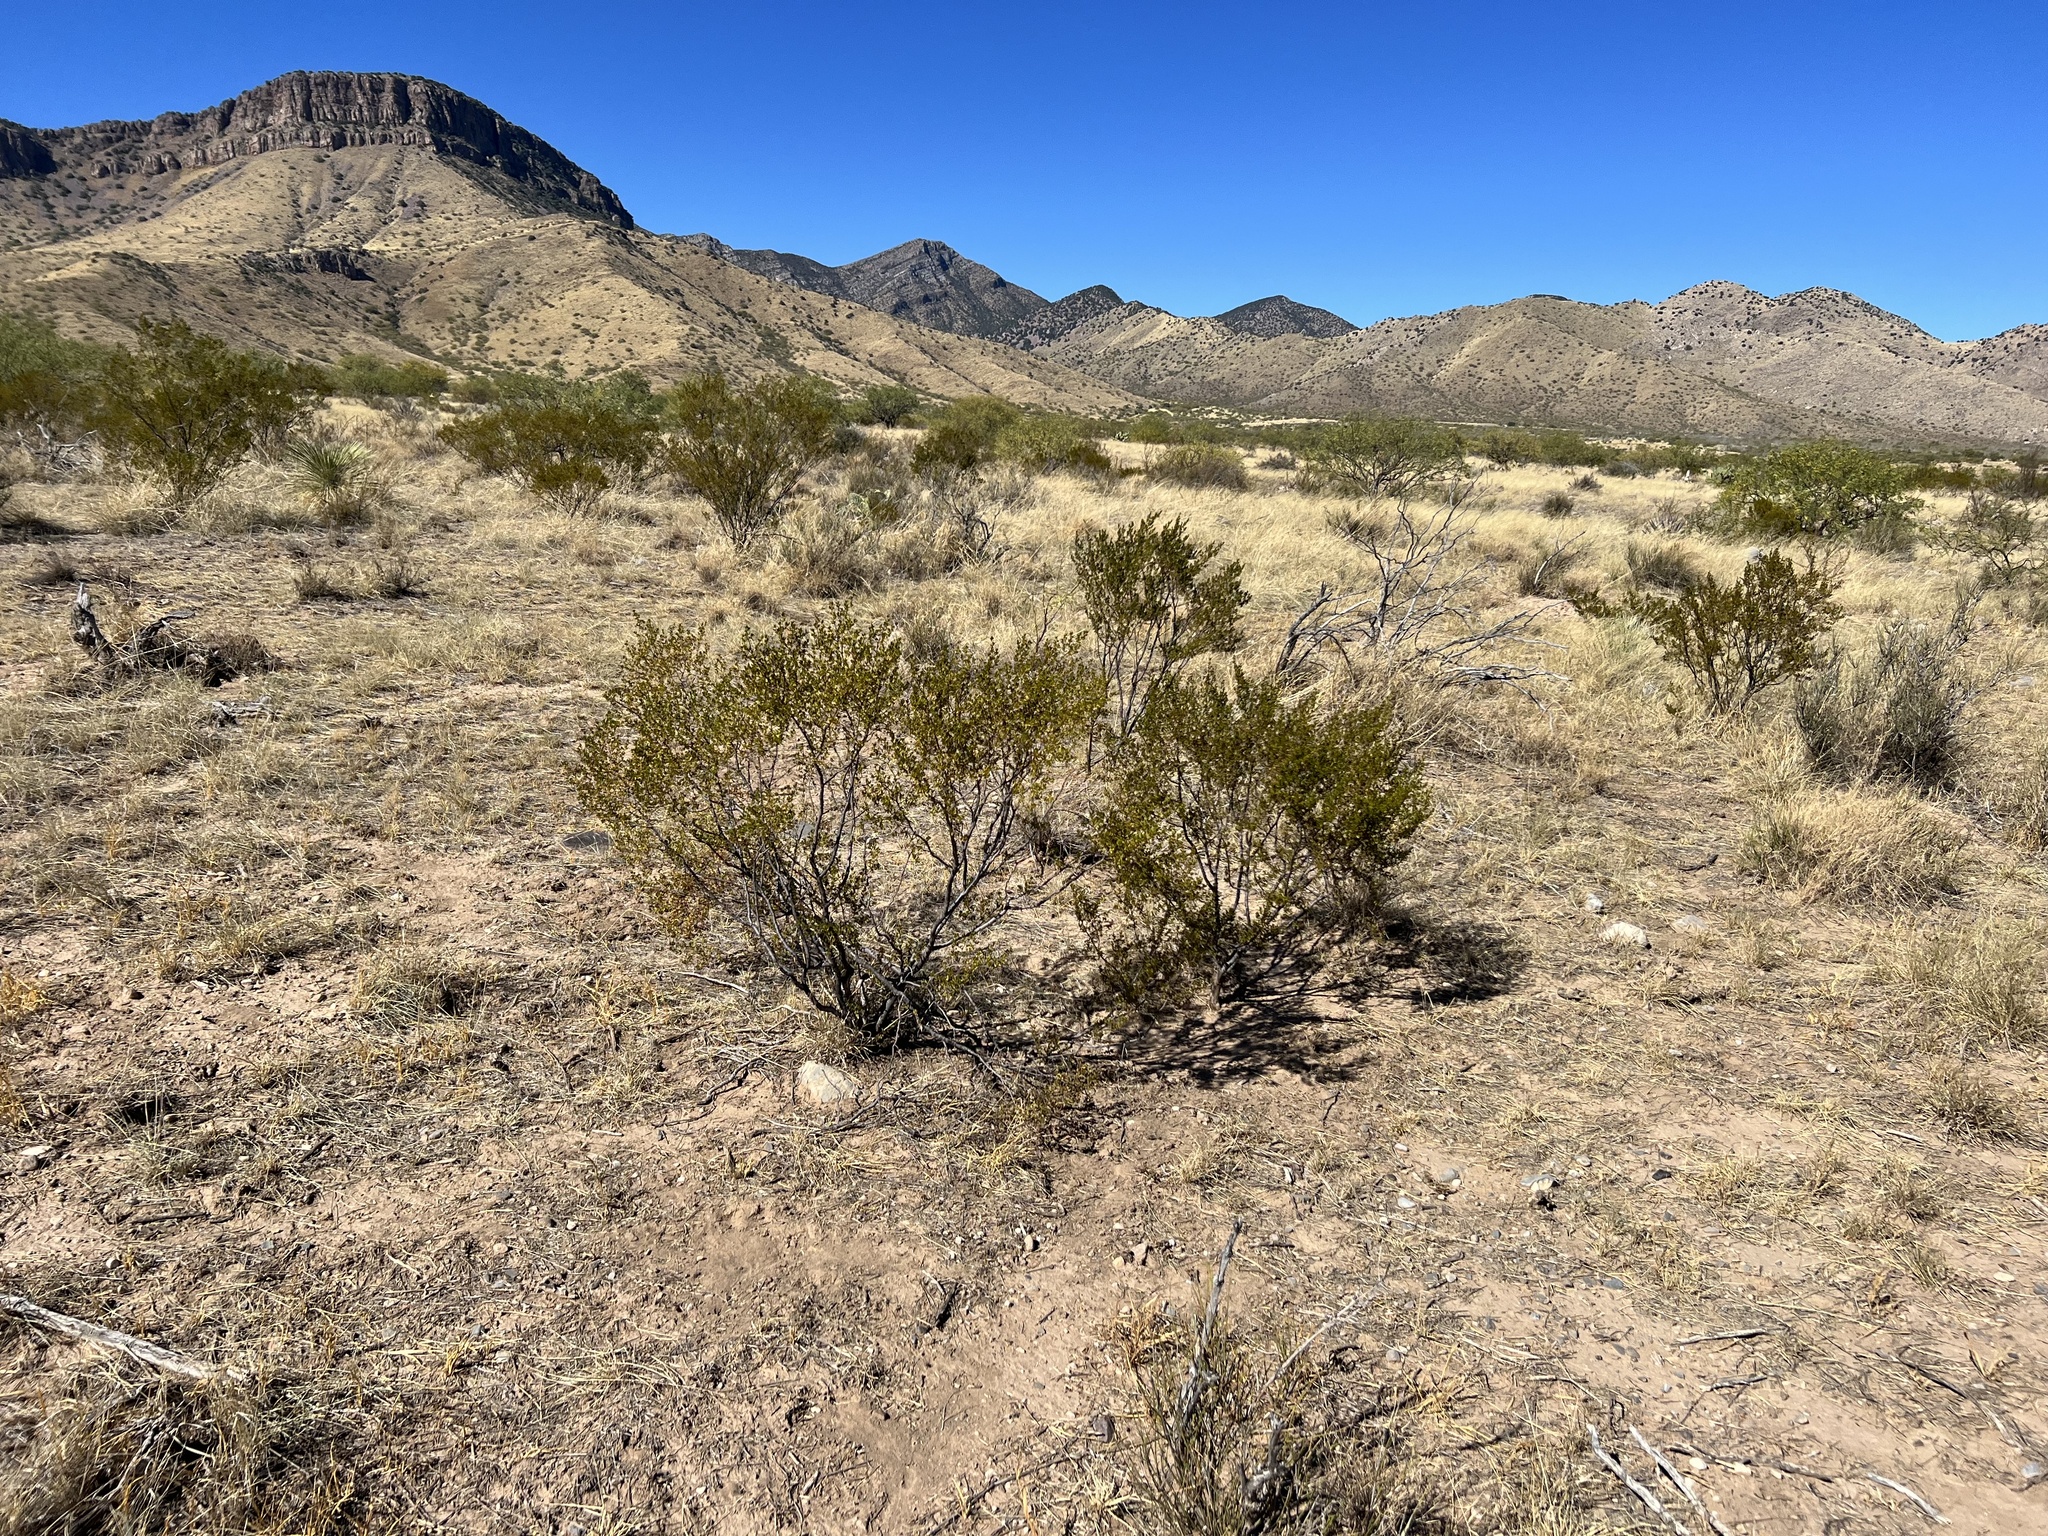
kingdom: Plantae
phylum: Tracheophyta
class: Magnoliopsida
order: Zygophyllales
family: Zygophyllaceae
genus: Larrea
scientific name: Larrea tridentata
